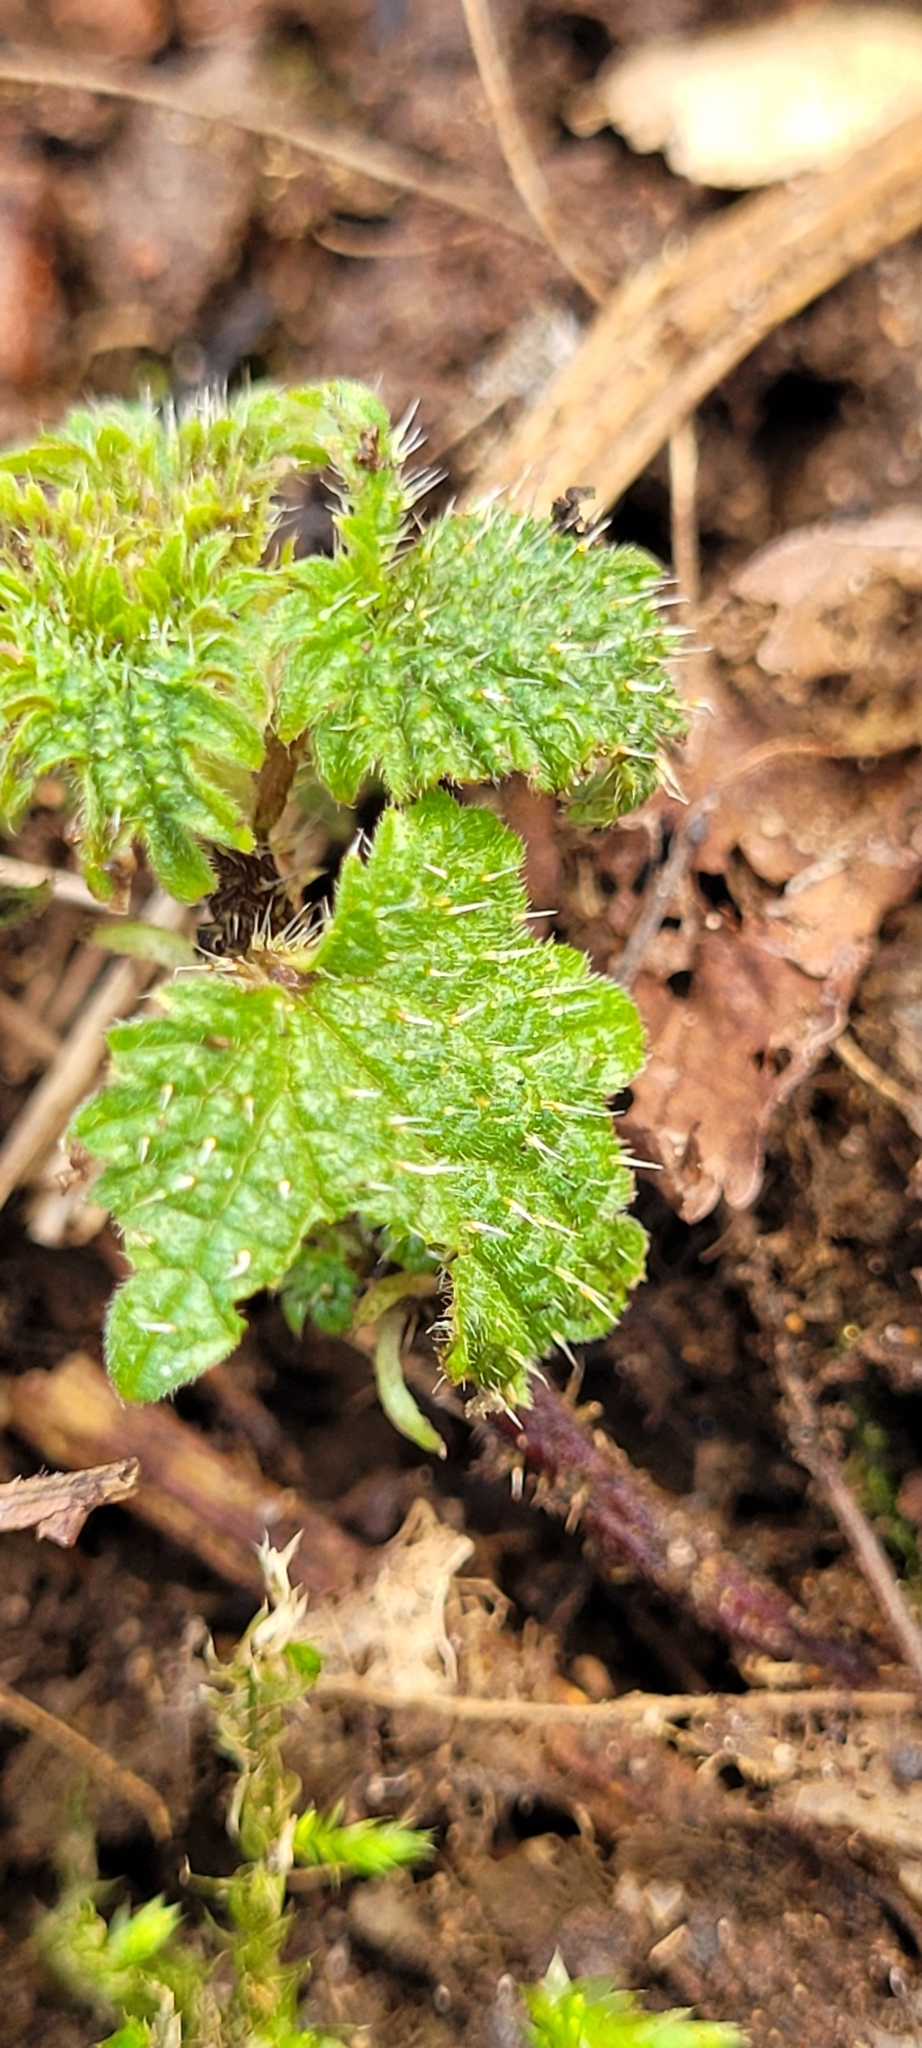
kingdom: Plantae
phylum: Tracheophyta
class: Magnoliopsida
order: Rosales
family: Urticaceae
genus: Urtica
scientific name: Urtica dioica
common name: Common nettle
